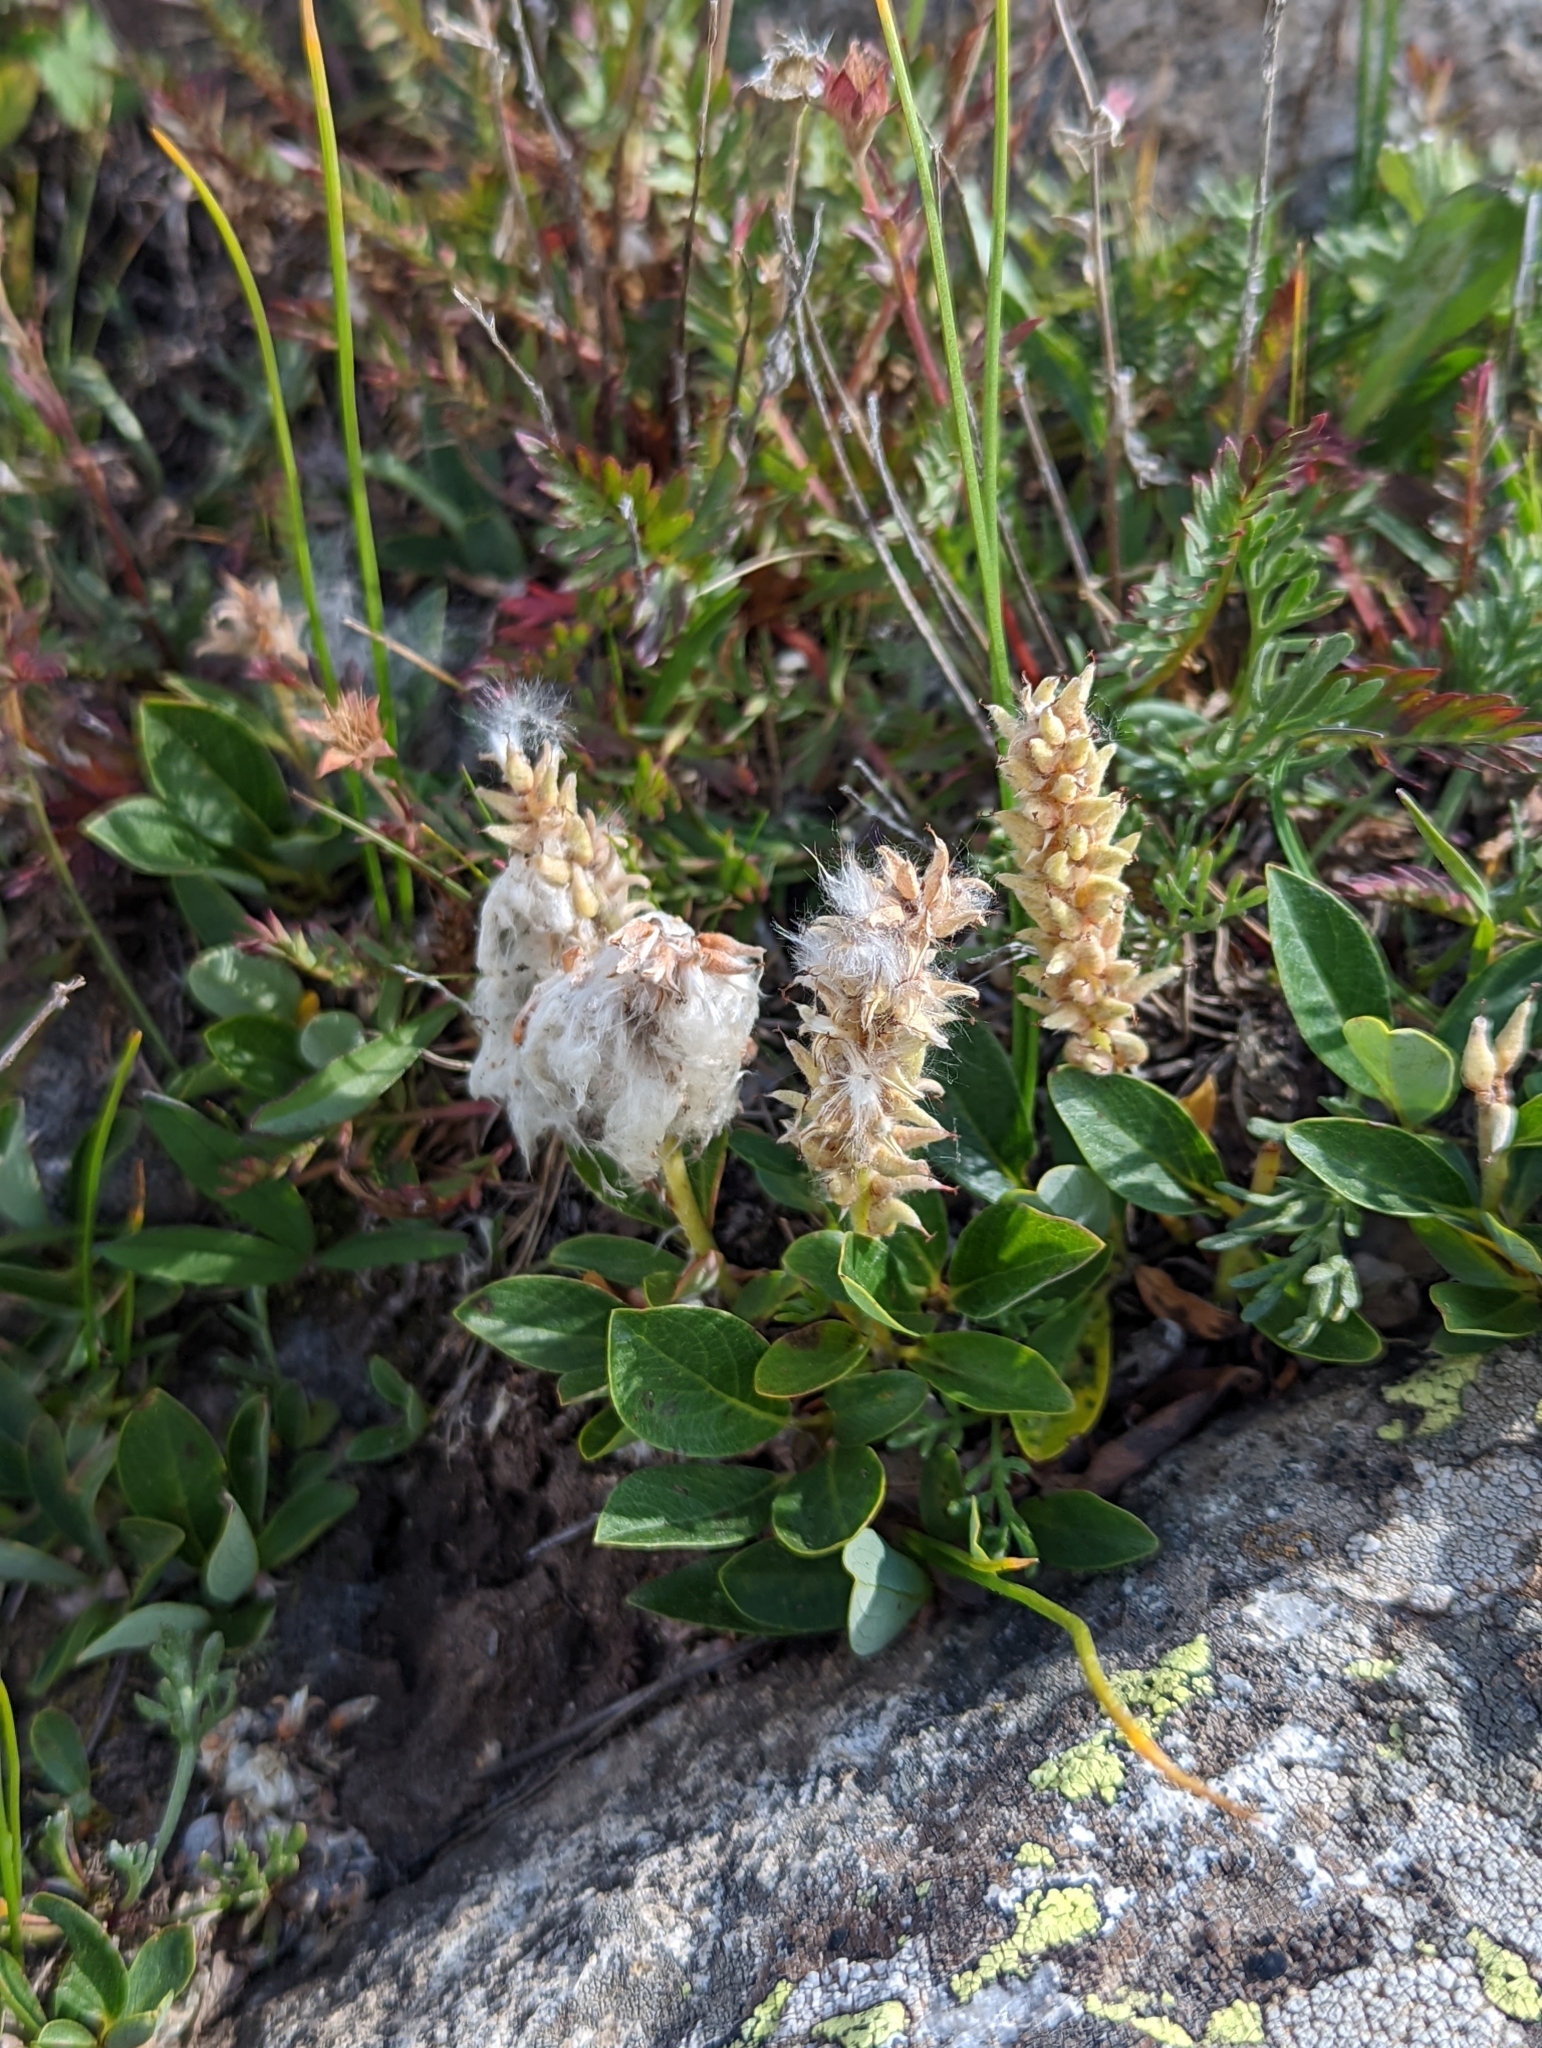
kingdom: Plantae
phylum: Tracheophyta
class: Magnoliopsida
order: Malpighiales
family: Salicaceae
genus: Salix
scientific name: Salix petrophila
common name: Rocky mountain willow
